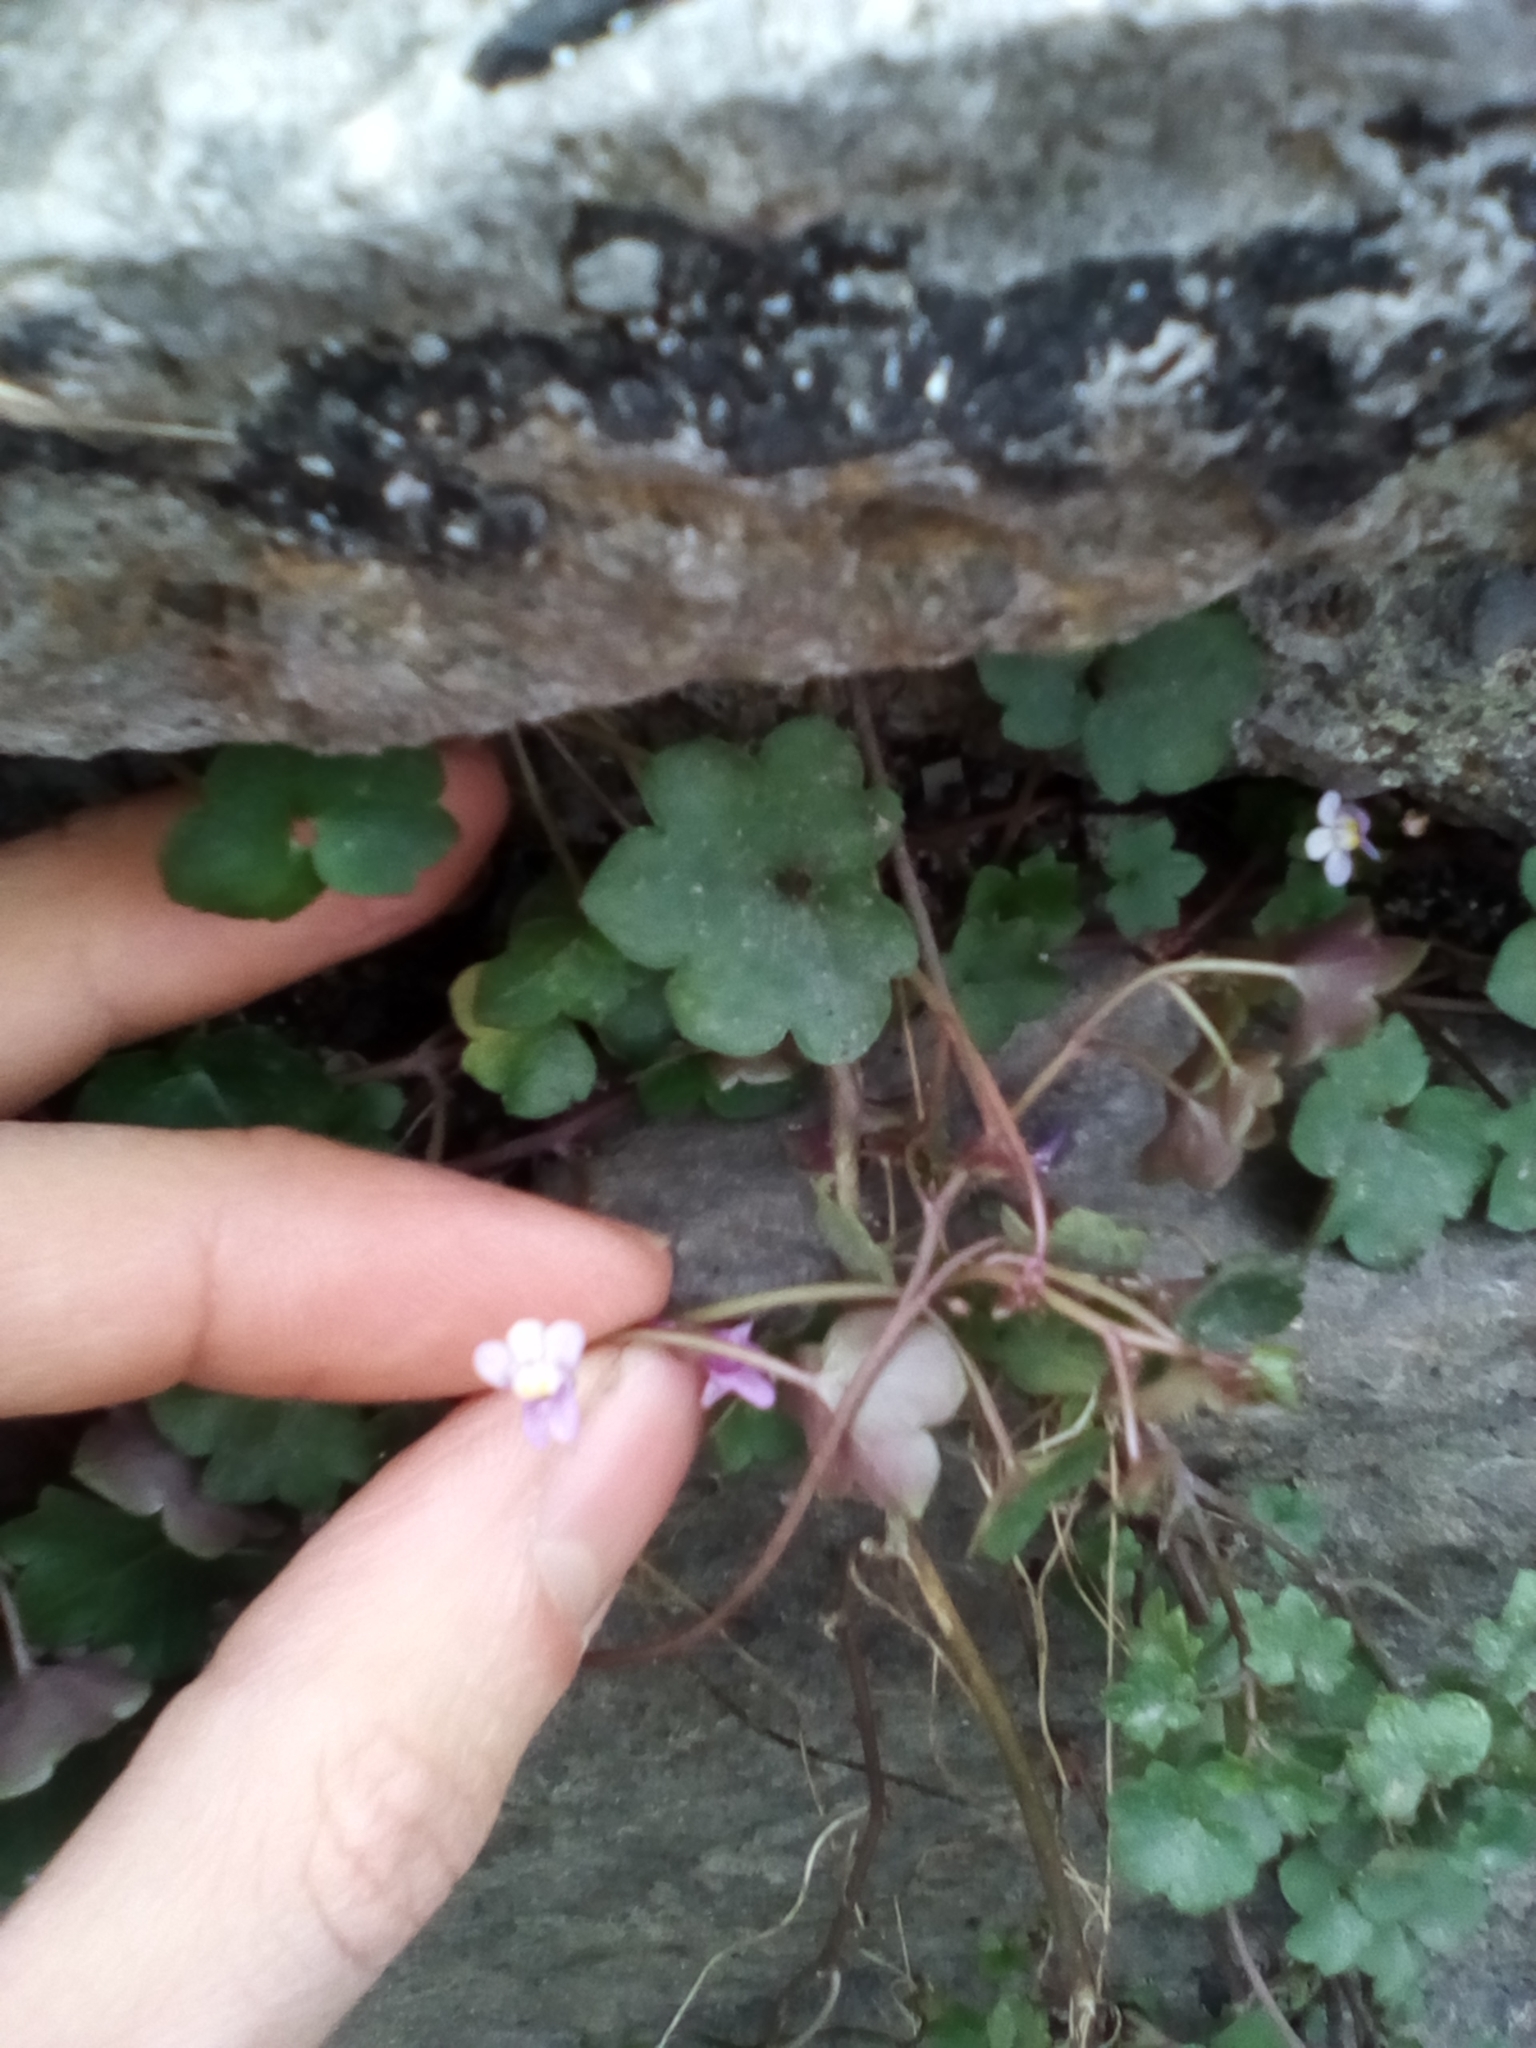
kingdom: Plantae
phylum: Tracheophyta
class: Magnoliopsida
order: Lamiales
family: Plantaginaceae
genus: Cymbalaria
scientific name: Cymbalaria muralis
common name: Ivy-leaved toadflax
